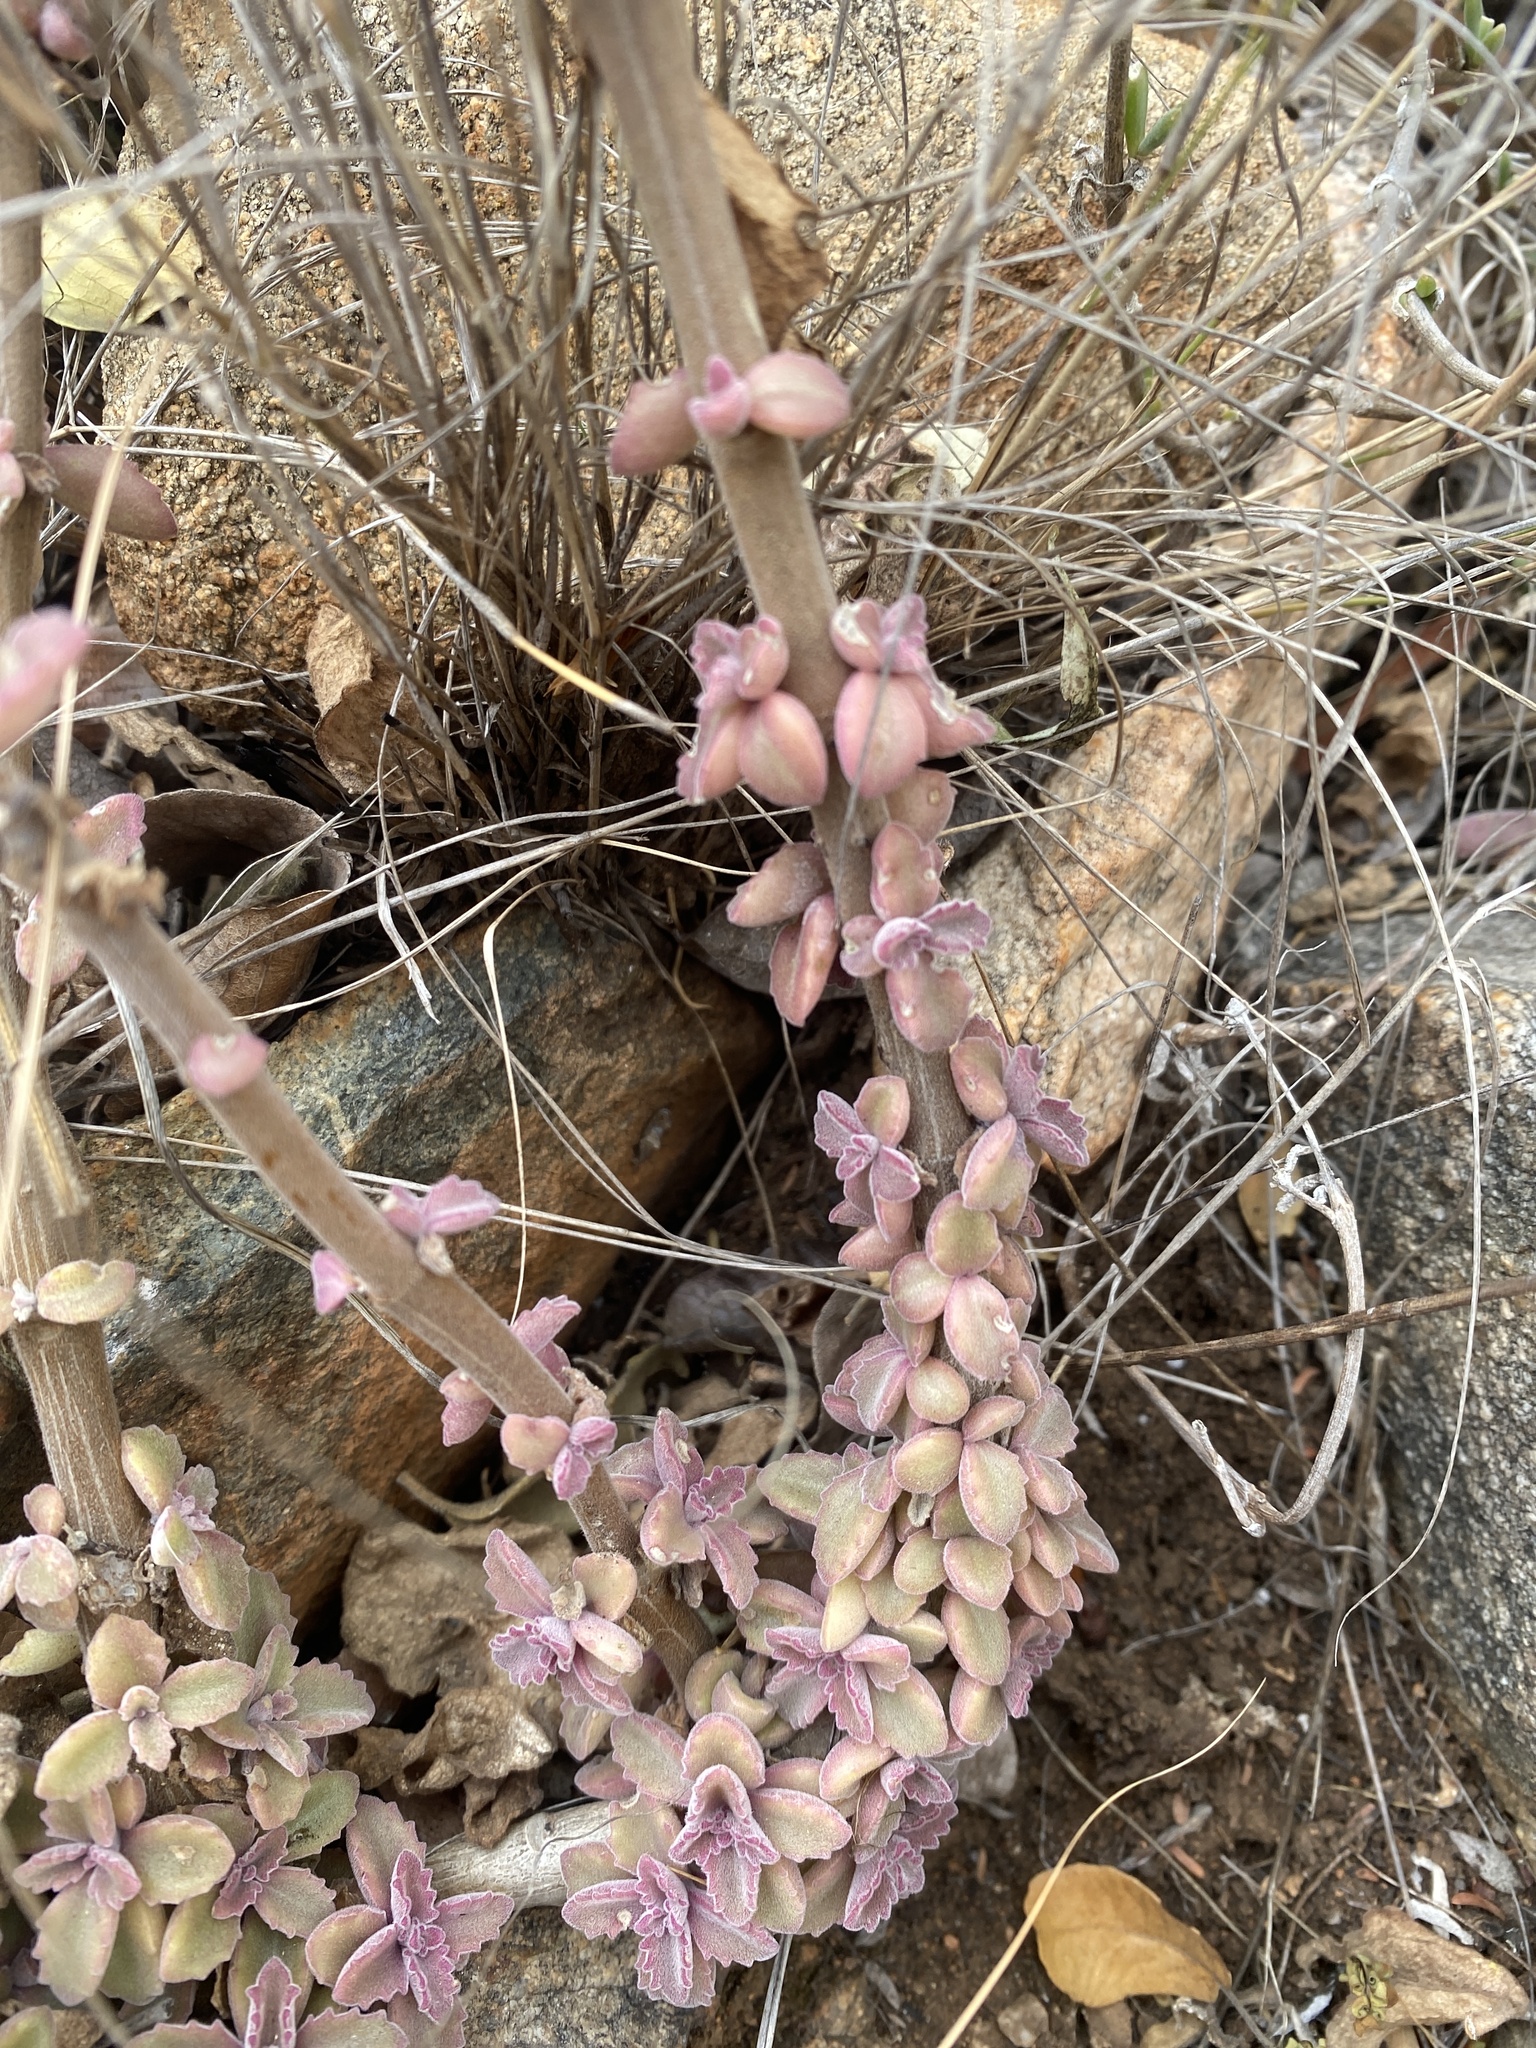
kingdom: Plantae
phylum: Tracheophyta
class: Magnoliopsida
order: Lamiales
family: Lamiaceae
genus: Coleus
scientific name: Coleus cylindraceus
